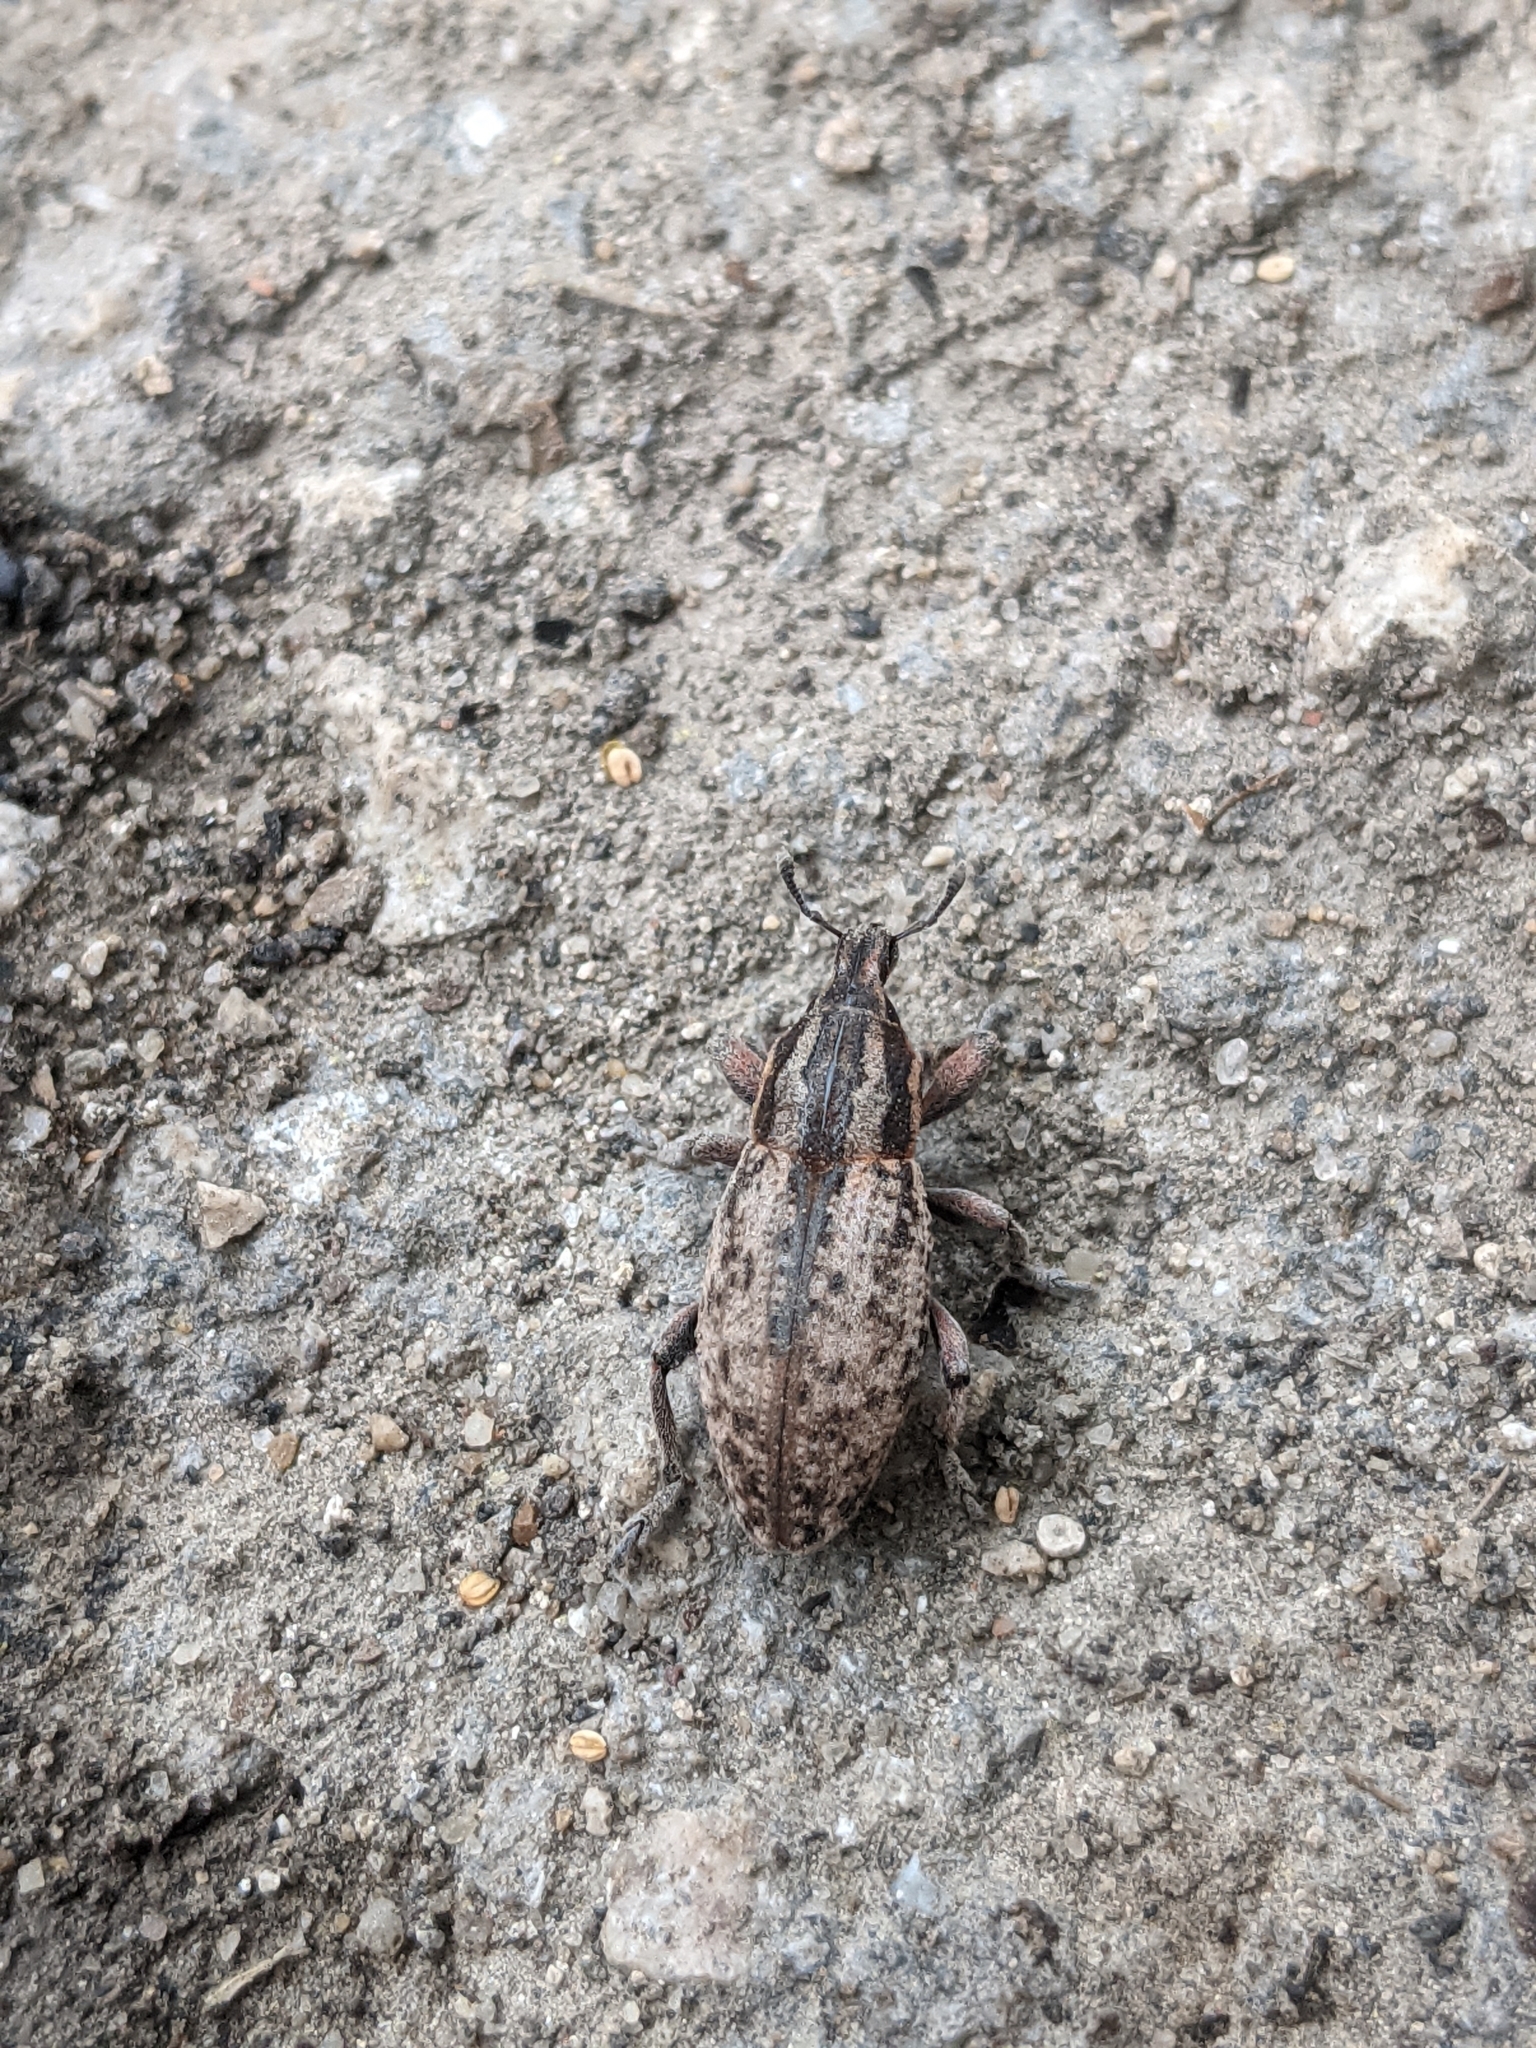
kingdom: Animalia
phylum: Arthropoda
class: Insecta
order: Coleoptera
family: Curculionidae
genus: Pseudocleonus
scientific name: Pseudocleonus cinereus
